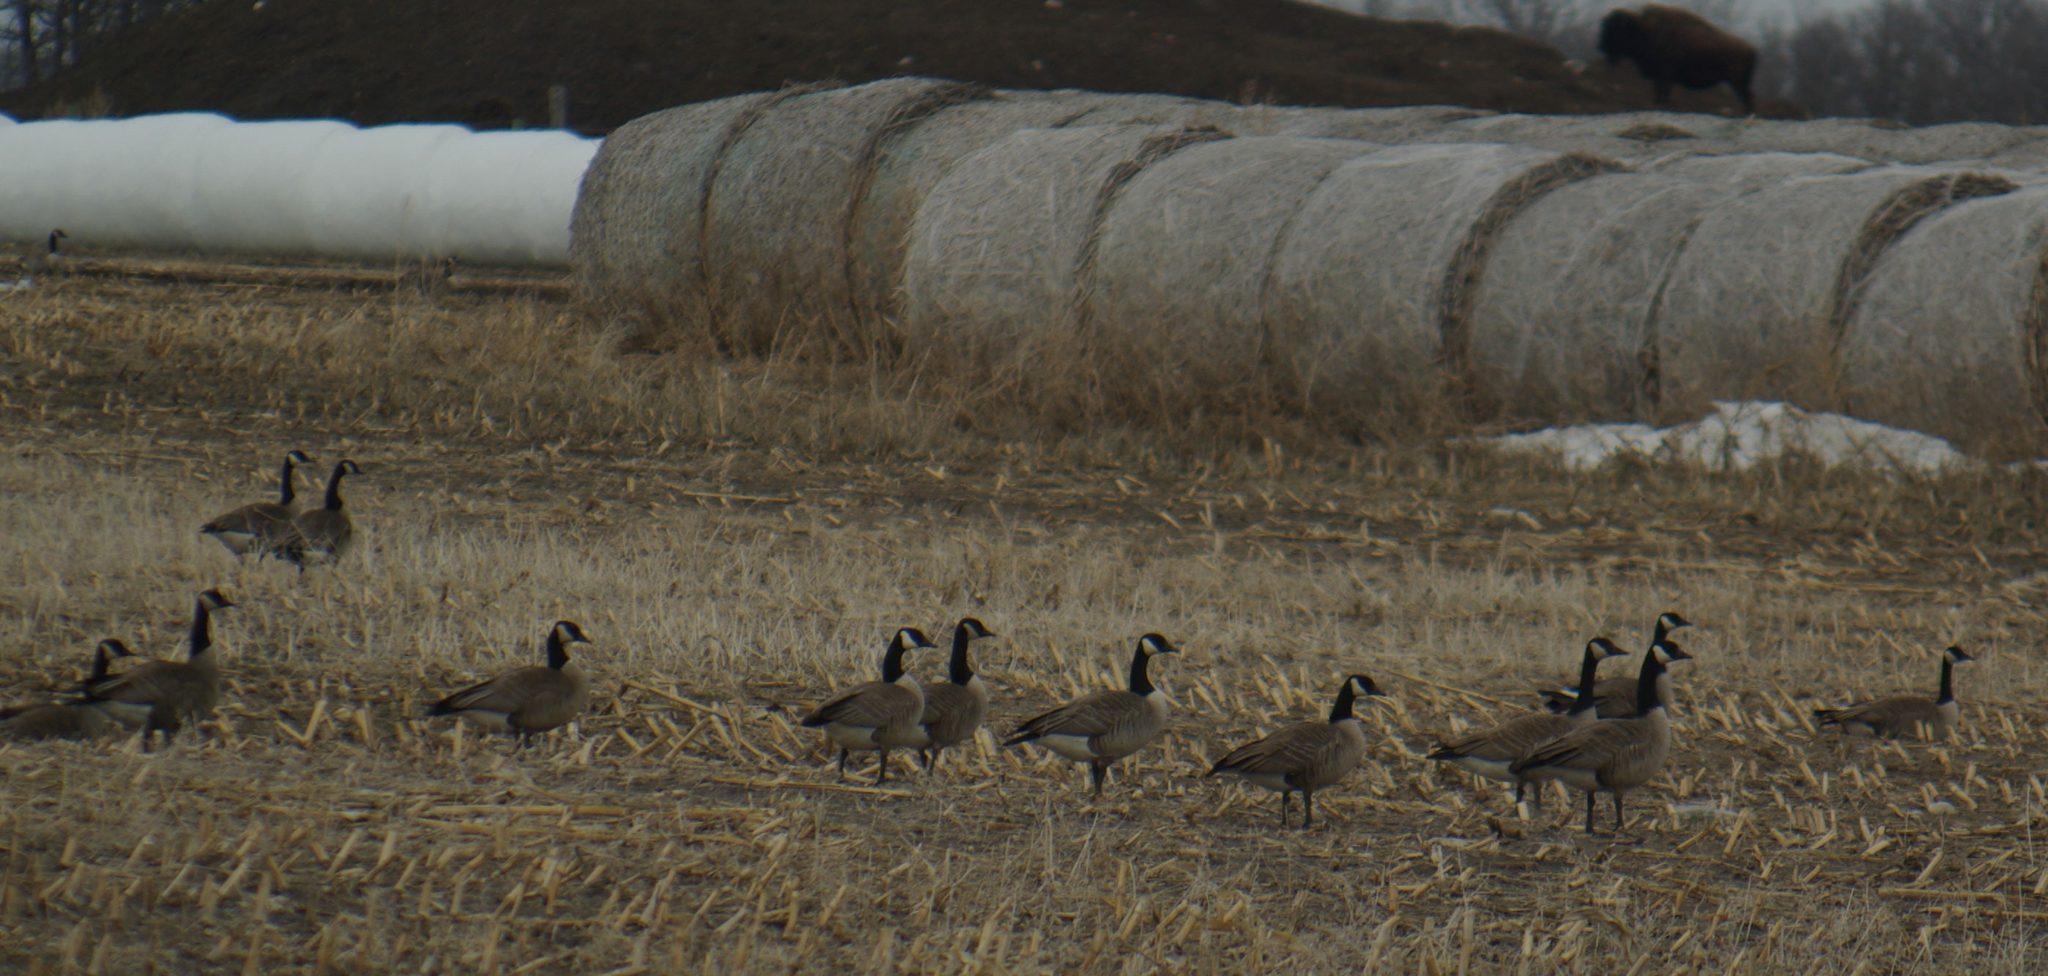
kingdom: Animalia
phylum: Chordata
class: Aves
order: Anseriformes
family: Anatidae
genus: Branta
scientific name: Branta canadensis
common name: Canada goose
